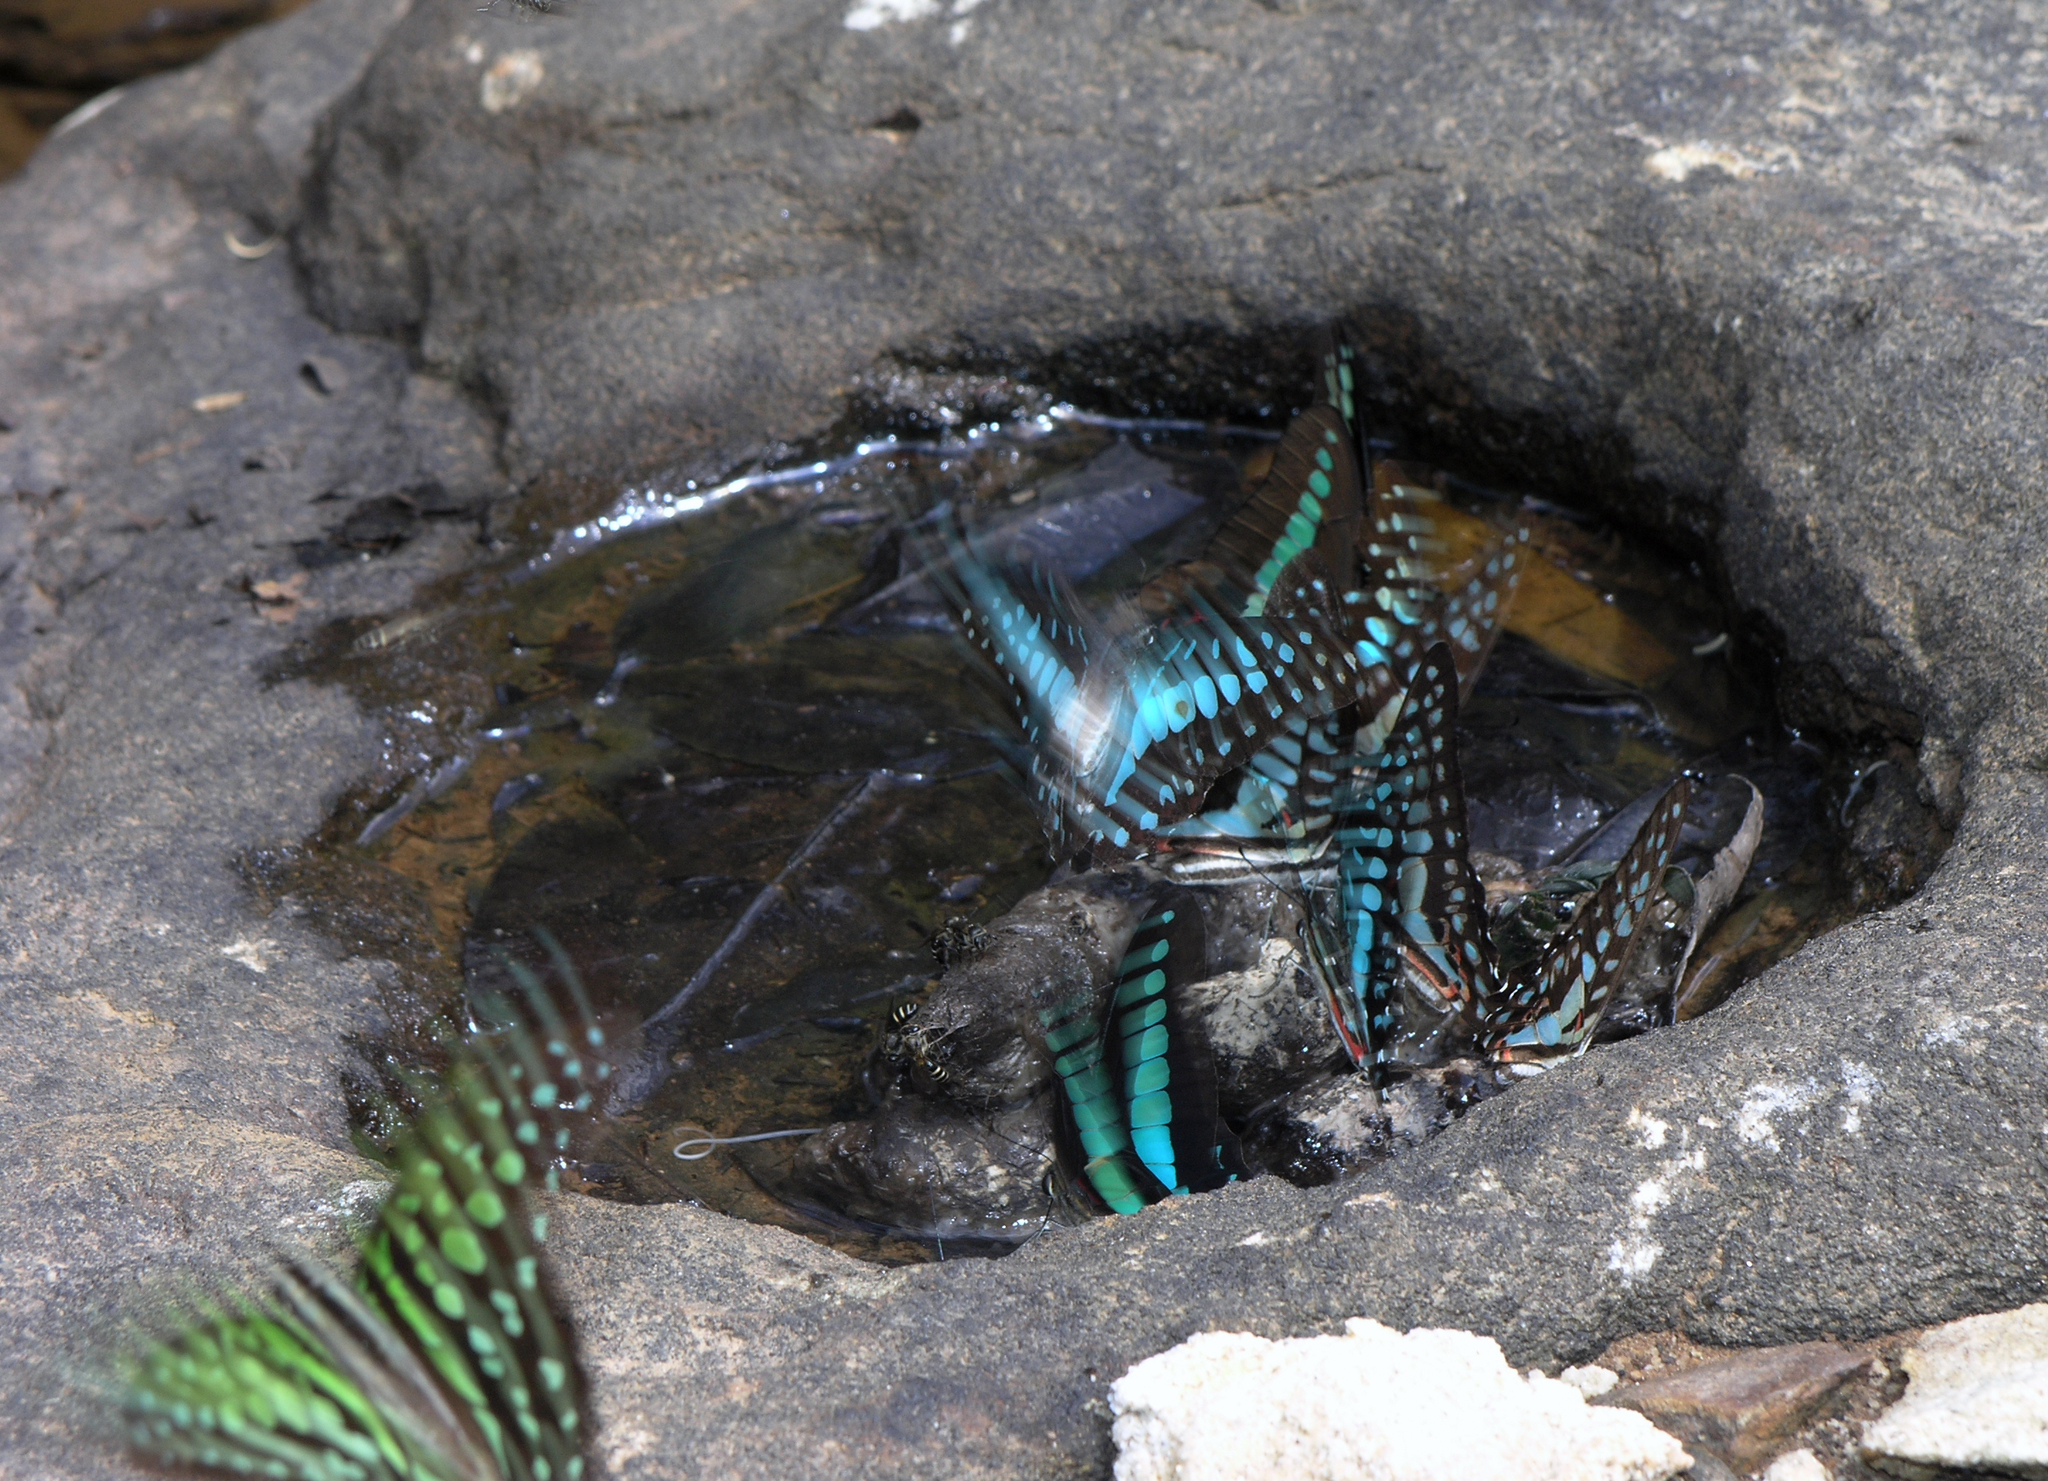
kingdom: Animalia
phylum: Arthropoda
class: Insecta
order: Lepidoptera
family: Papilionidae
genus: Graphium
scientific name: Graphium doson
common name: Common jay
